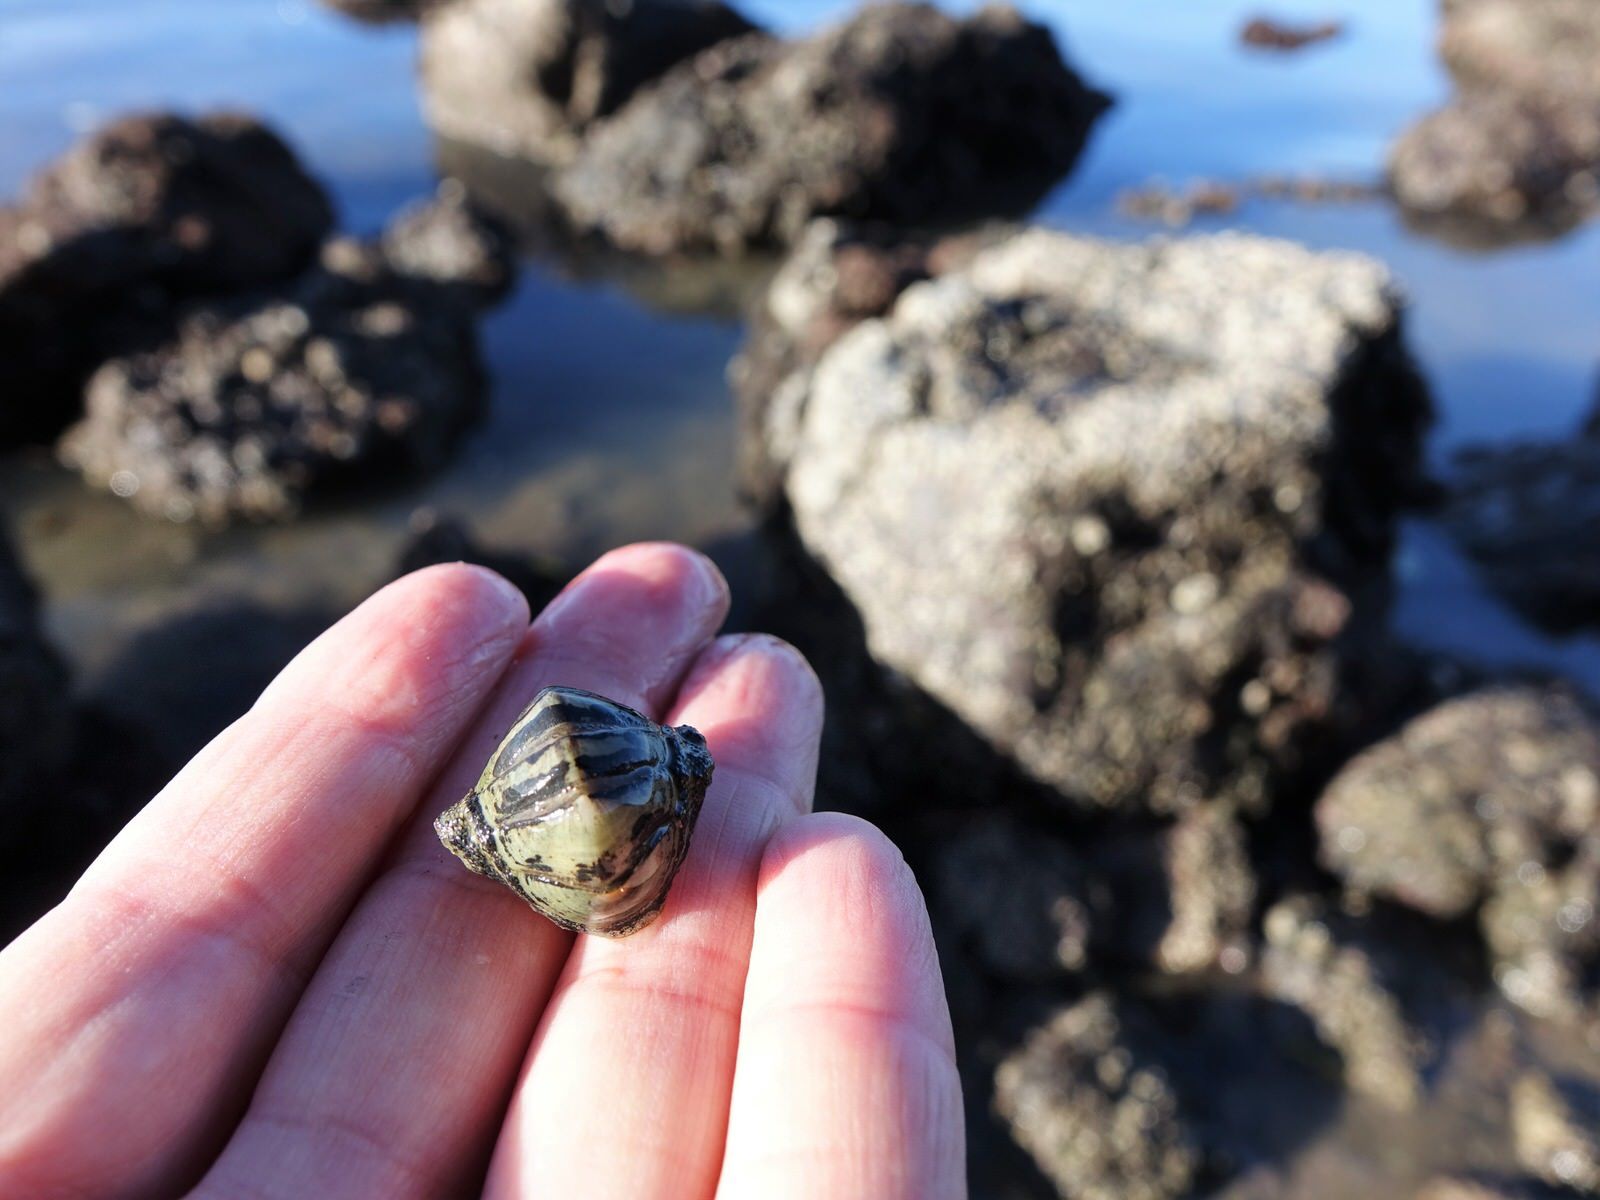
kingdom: Animalia
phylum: Mollusca
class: Polyplacophora
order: Chitonida
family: Chitonidae
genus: Chiton
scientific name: Chiton glaucus
